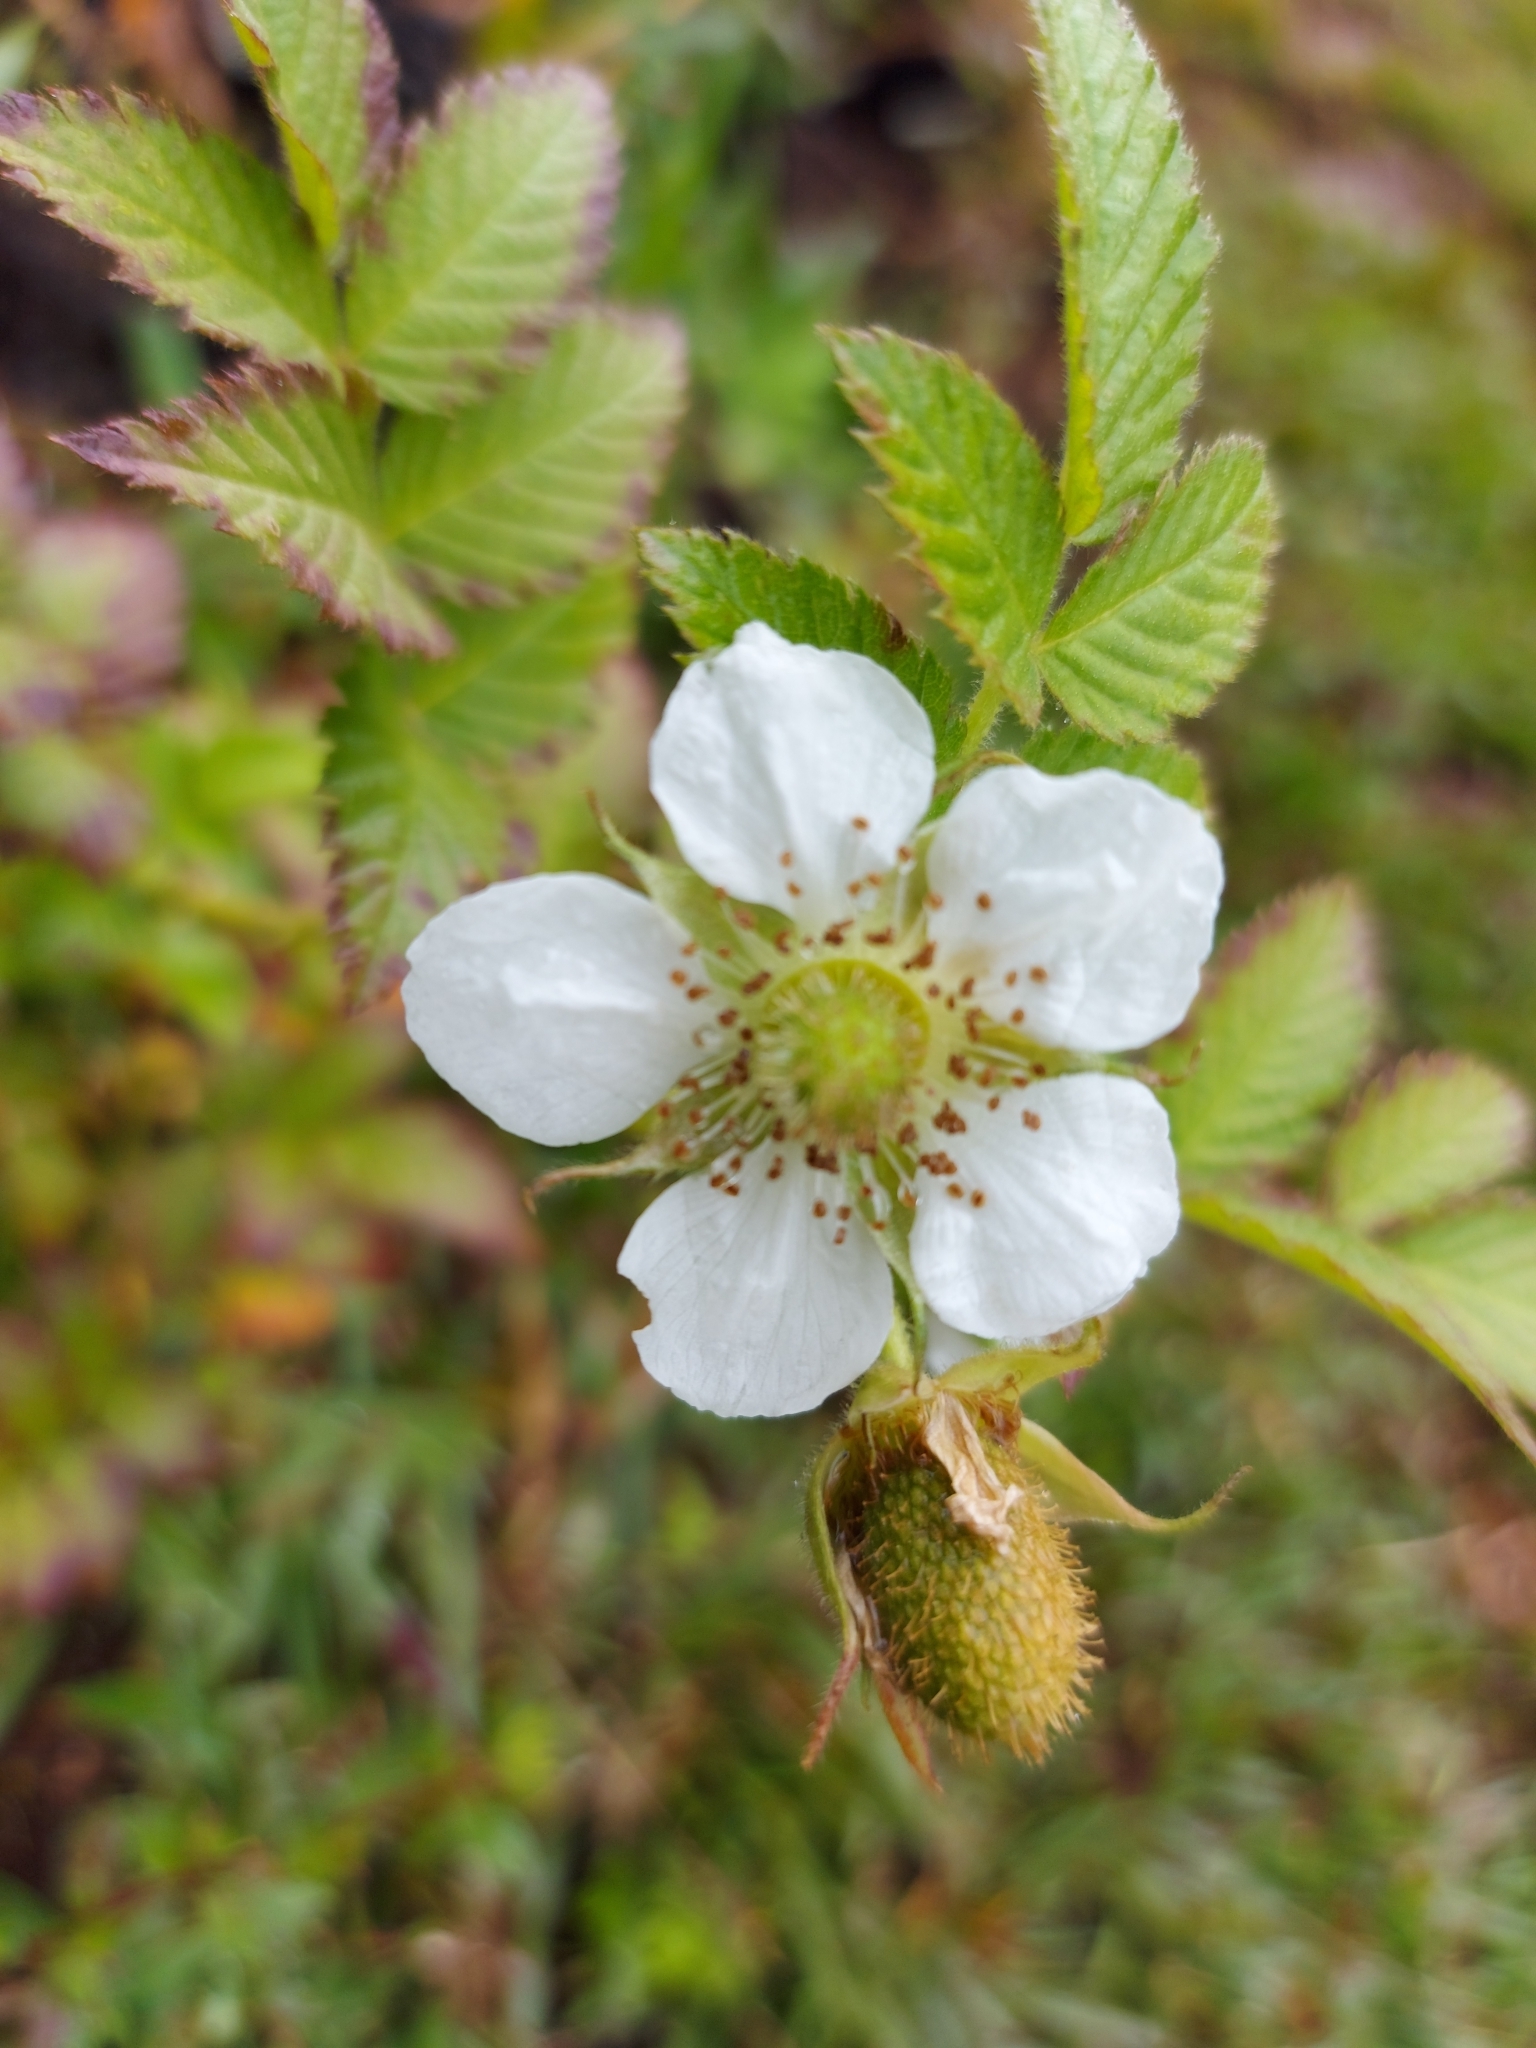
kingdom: Plantae
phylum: Tracheophyta
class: Magnoliopsida
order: Rosales
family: Rosaceae
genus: Rubus
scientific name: Rubus rosifolius
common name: Roseleaf raspberry
